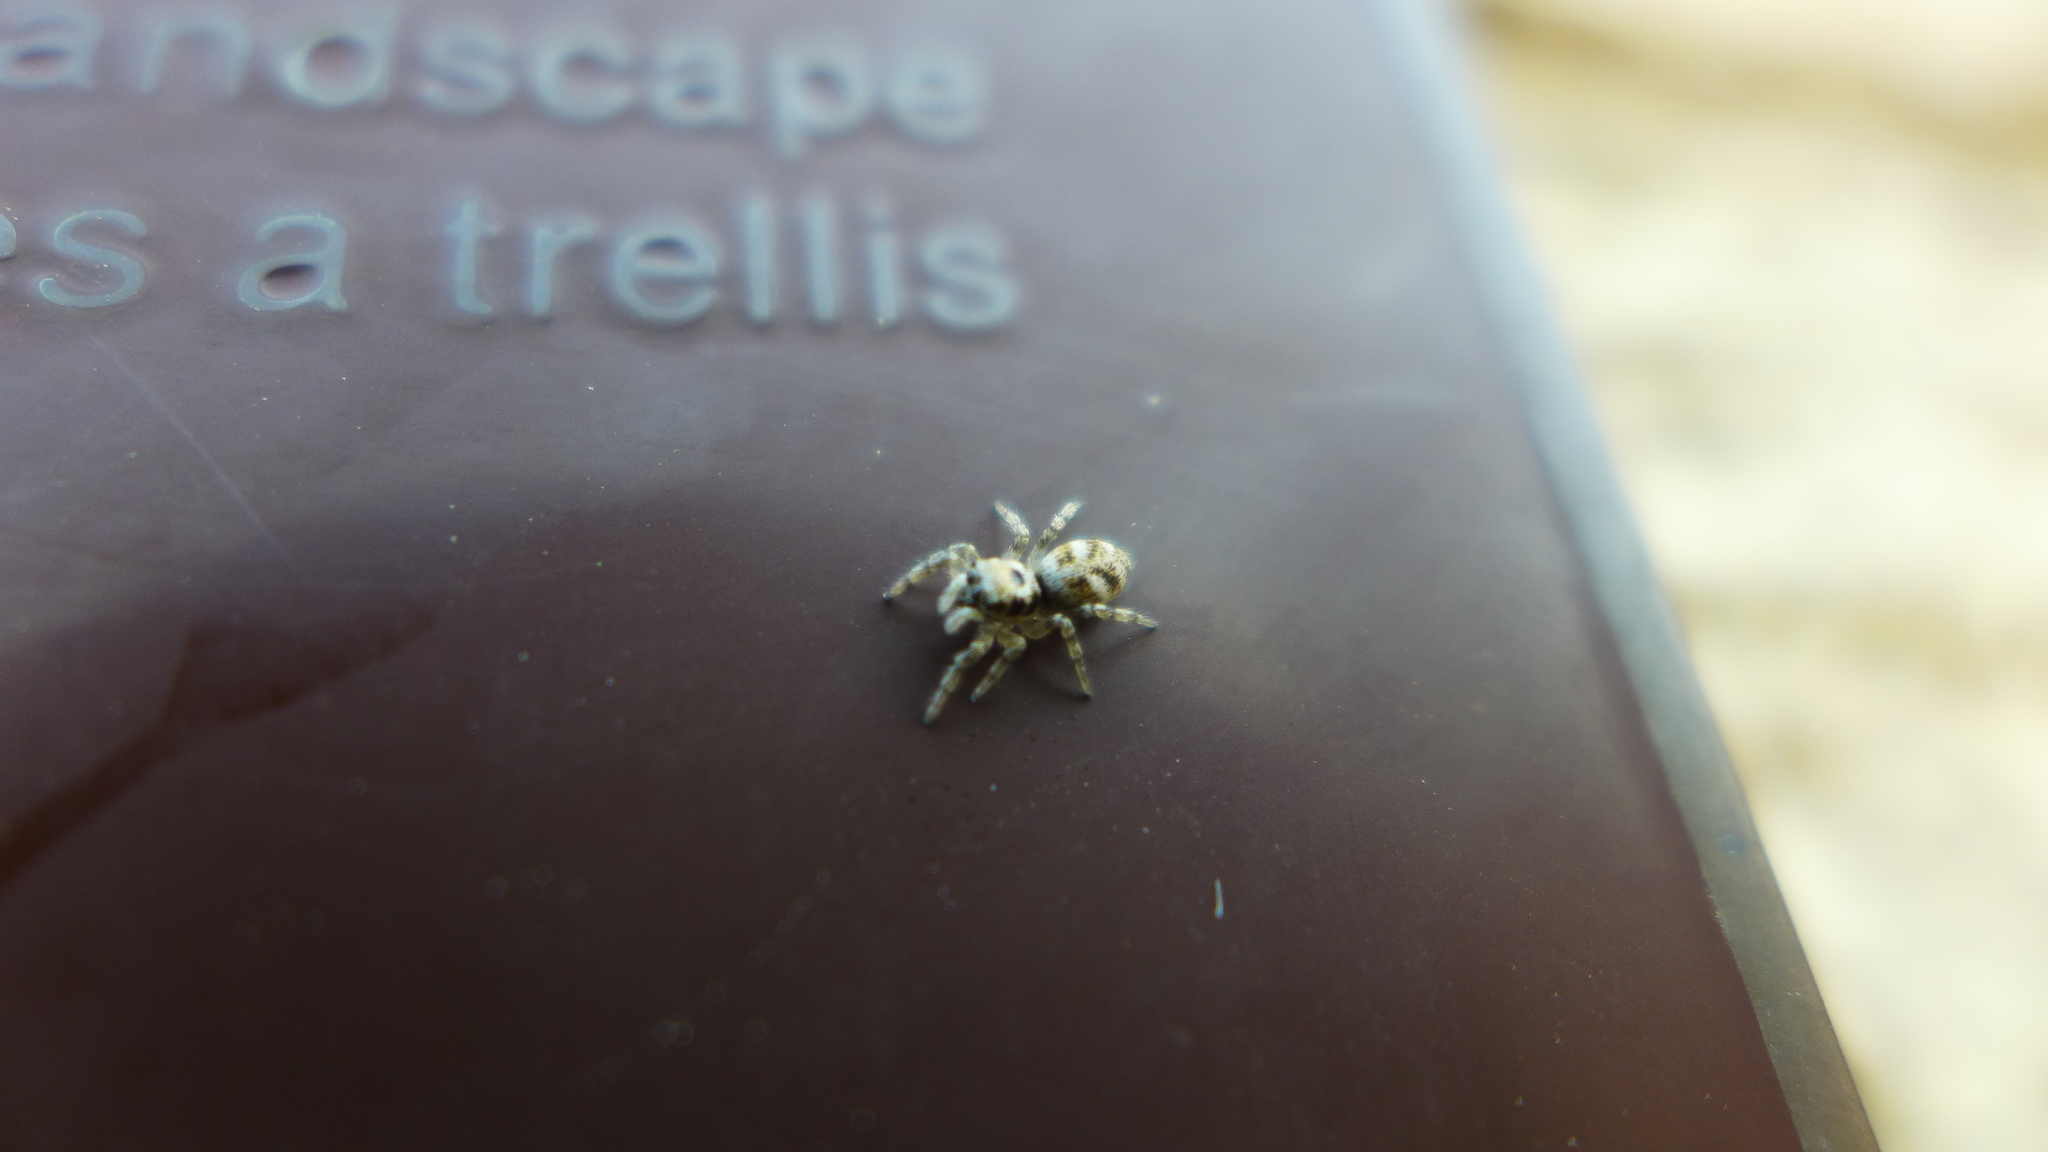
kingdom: Animalia
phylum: Arthropoda
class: Arachnida
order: Araneae
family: Salticidae
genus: Salticus
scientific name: Salticus scenicus
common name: Zebra jumper
